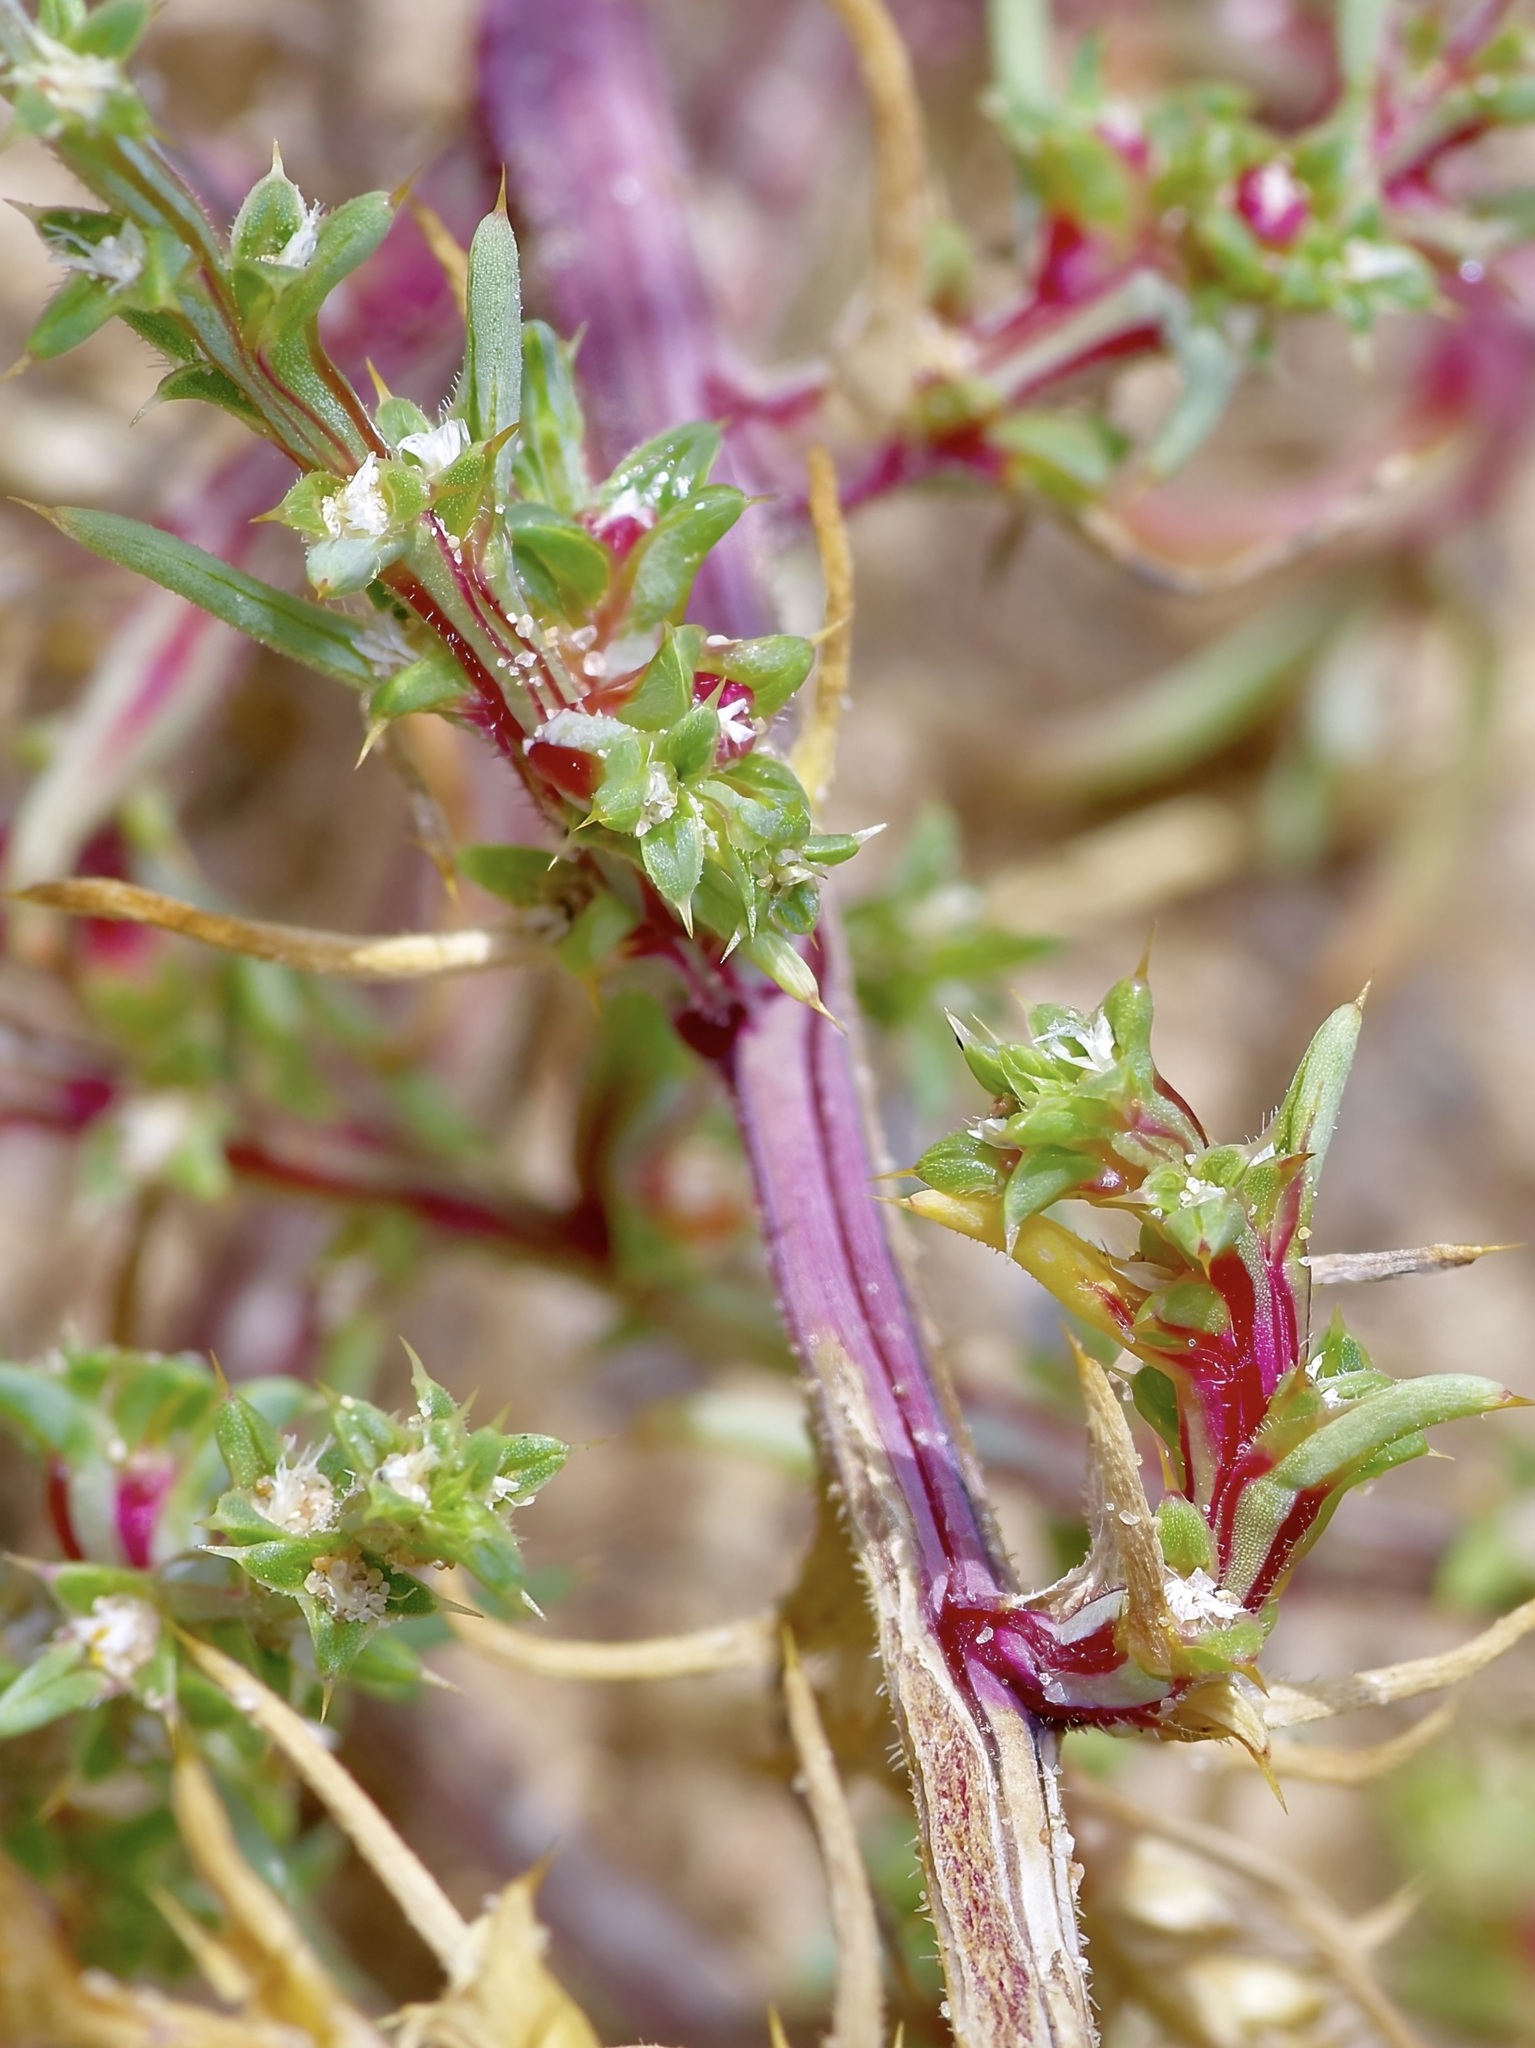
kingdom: Plantae
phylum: Tracheophyta
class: Magnoliopsida
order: Caryophyllales
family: Amaranthaceae
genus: Salsola
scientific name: Salsola tragus
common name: Prickly russian thistle
